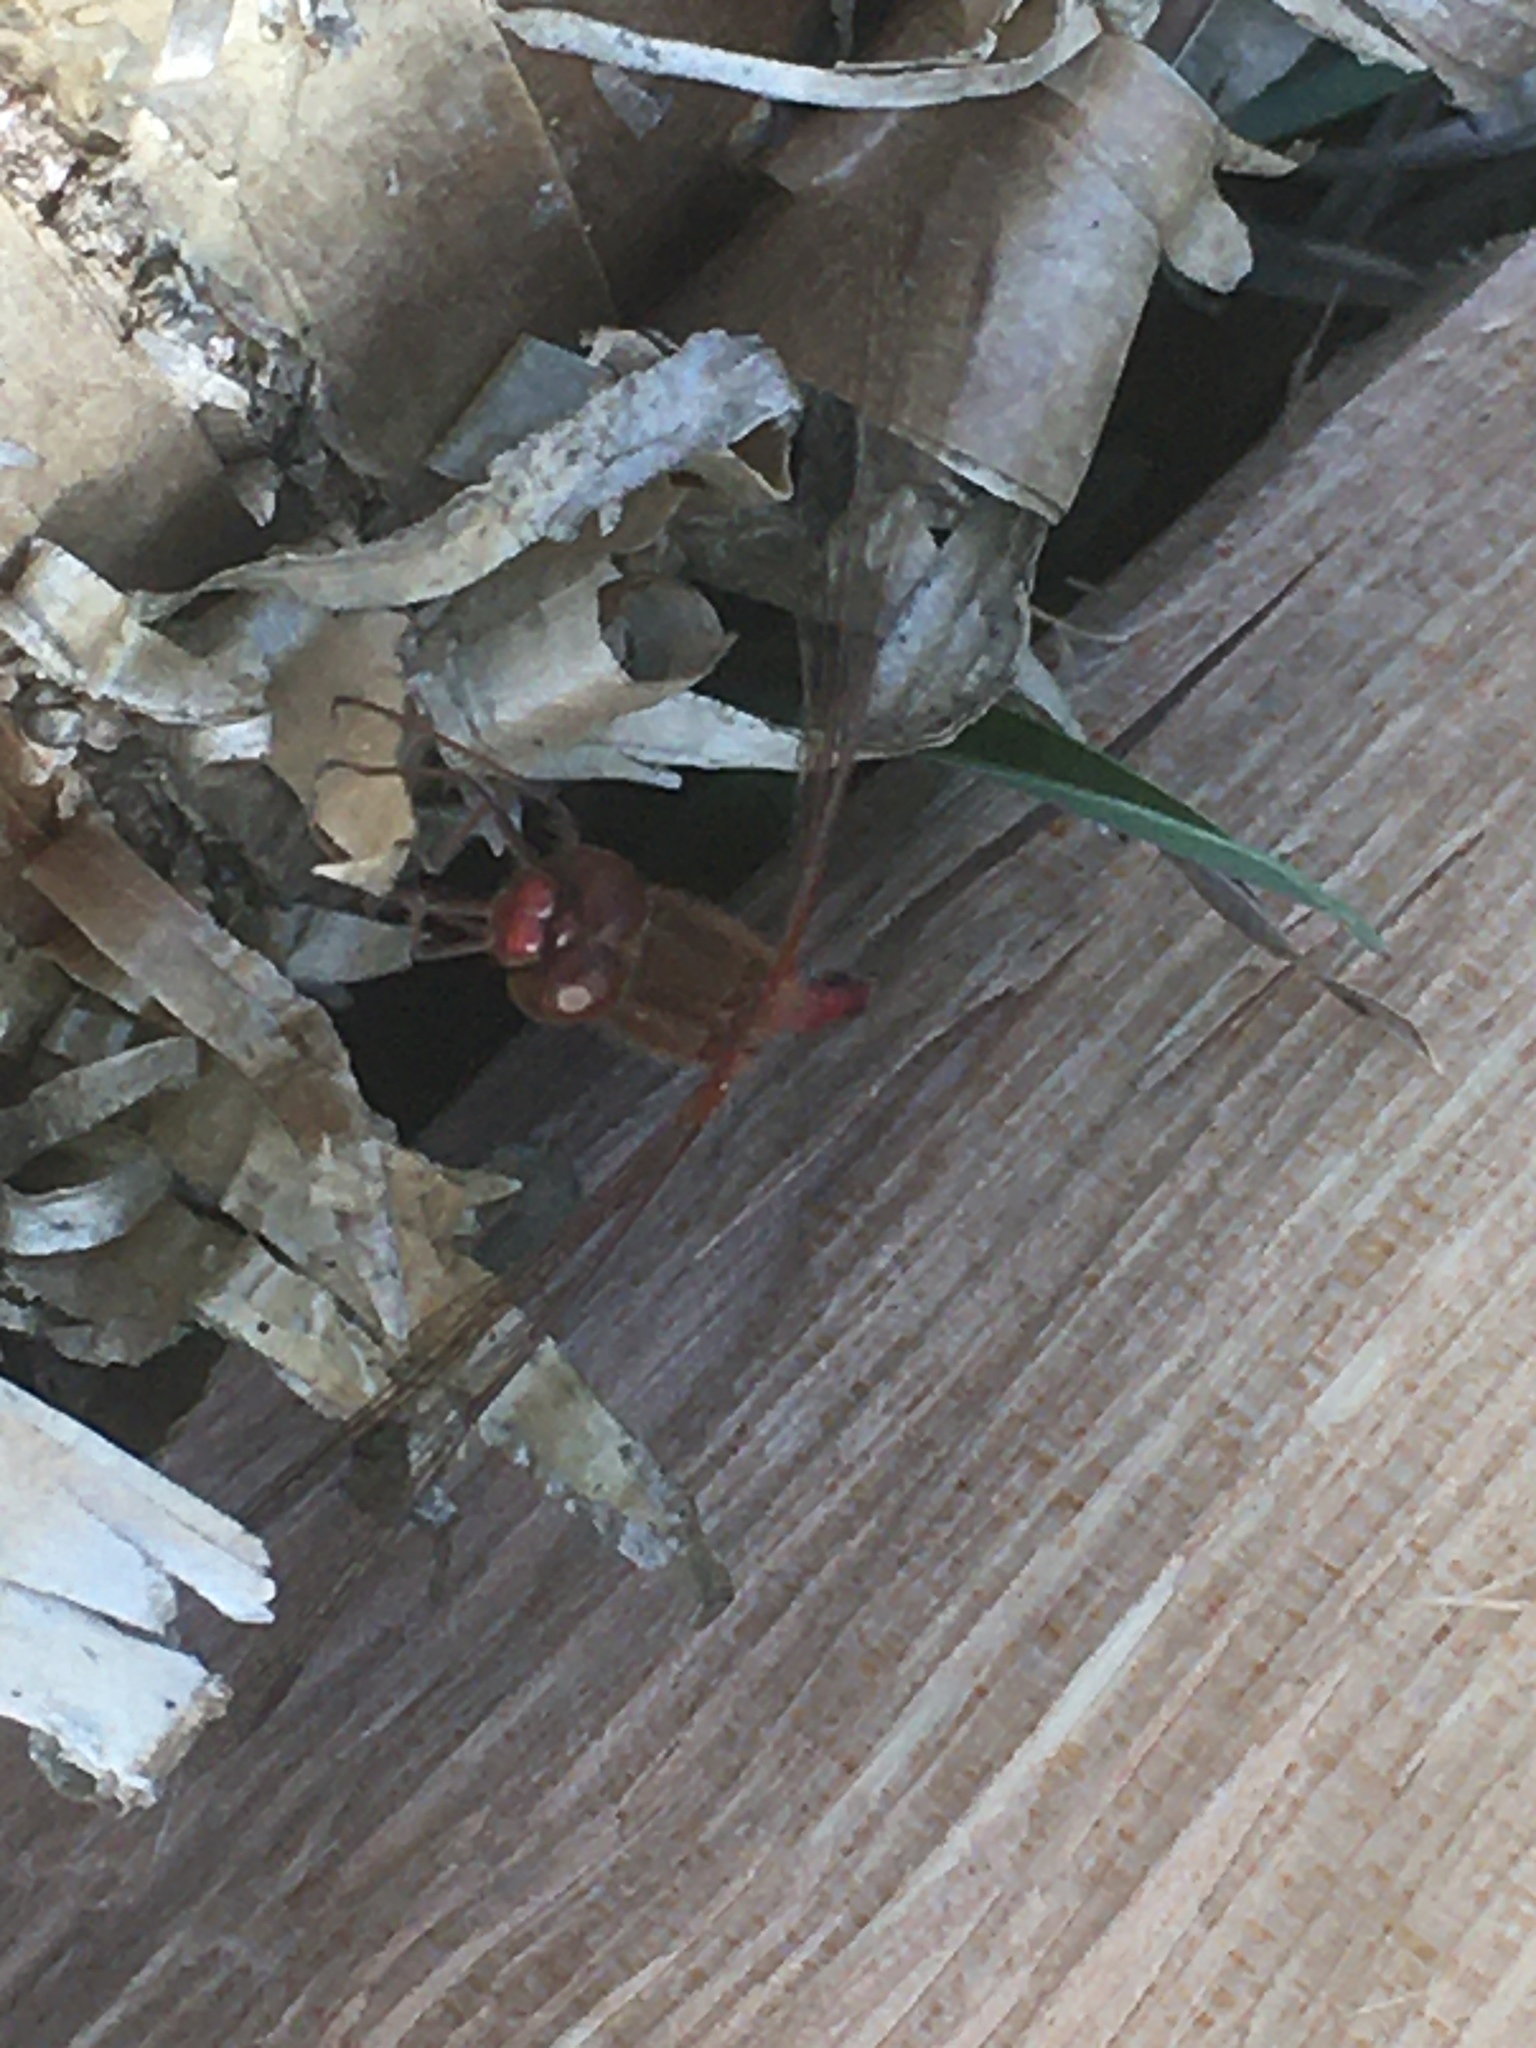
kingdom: Animalia
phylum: Arthropoda
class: Insecta
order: Odonata
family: Libellulidae
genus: Sympetrum
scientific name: Sympetrum vicinum
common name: Autumn meadowhawk
